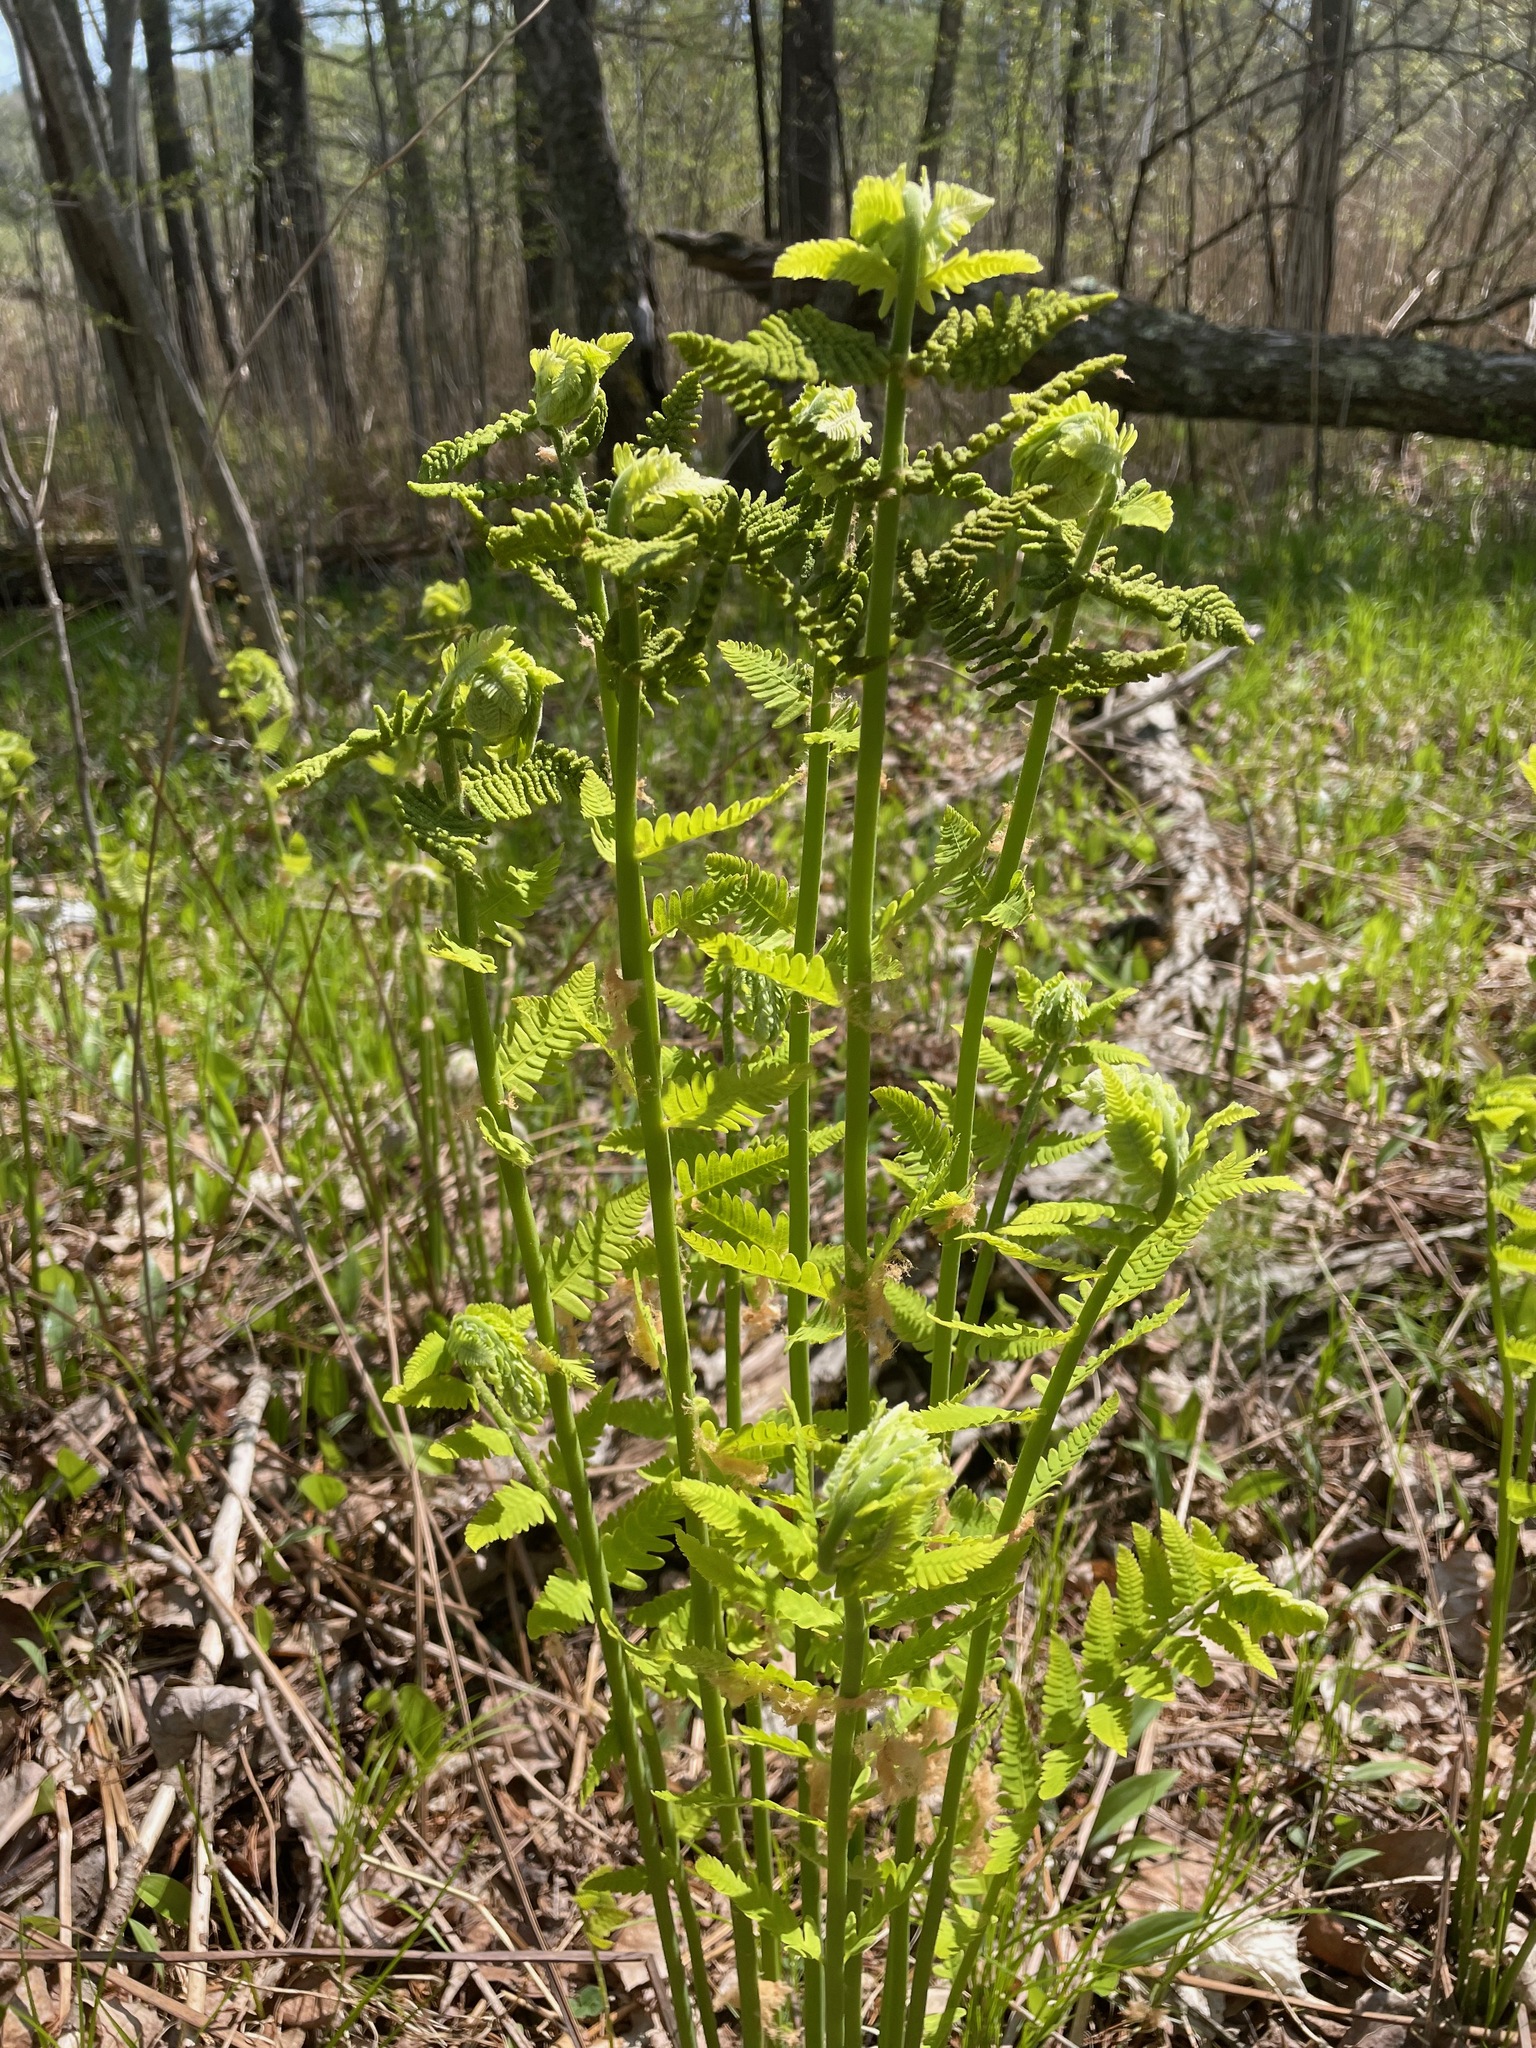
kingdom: Plantae
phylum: Tracheophyta
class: Polypodiopsida
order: Osmundales
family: Osmundaceae
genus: Claytosmunda
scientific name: Claytosmunda claytoniana
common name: Clayton's fern
